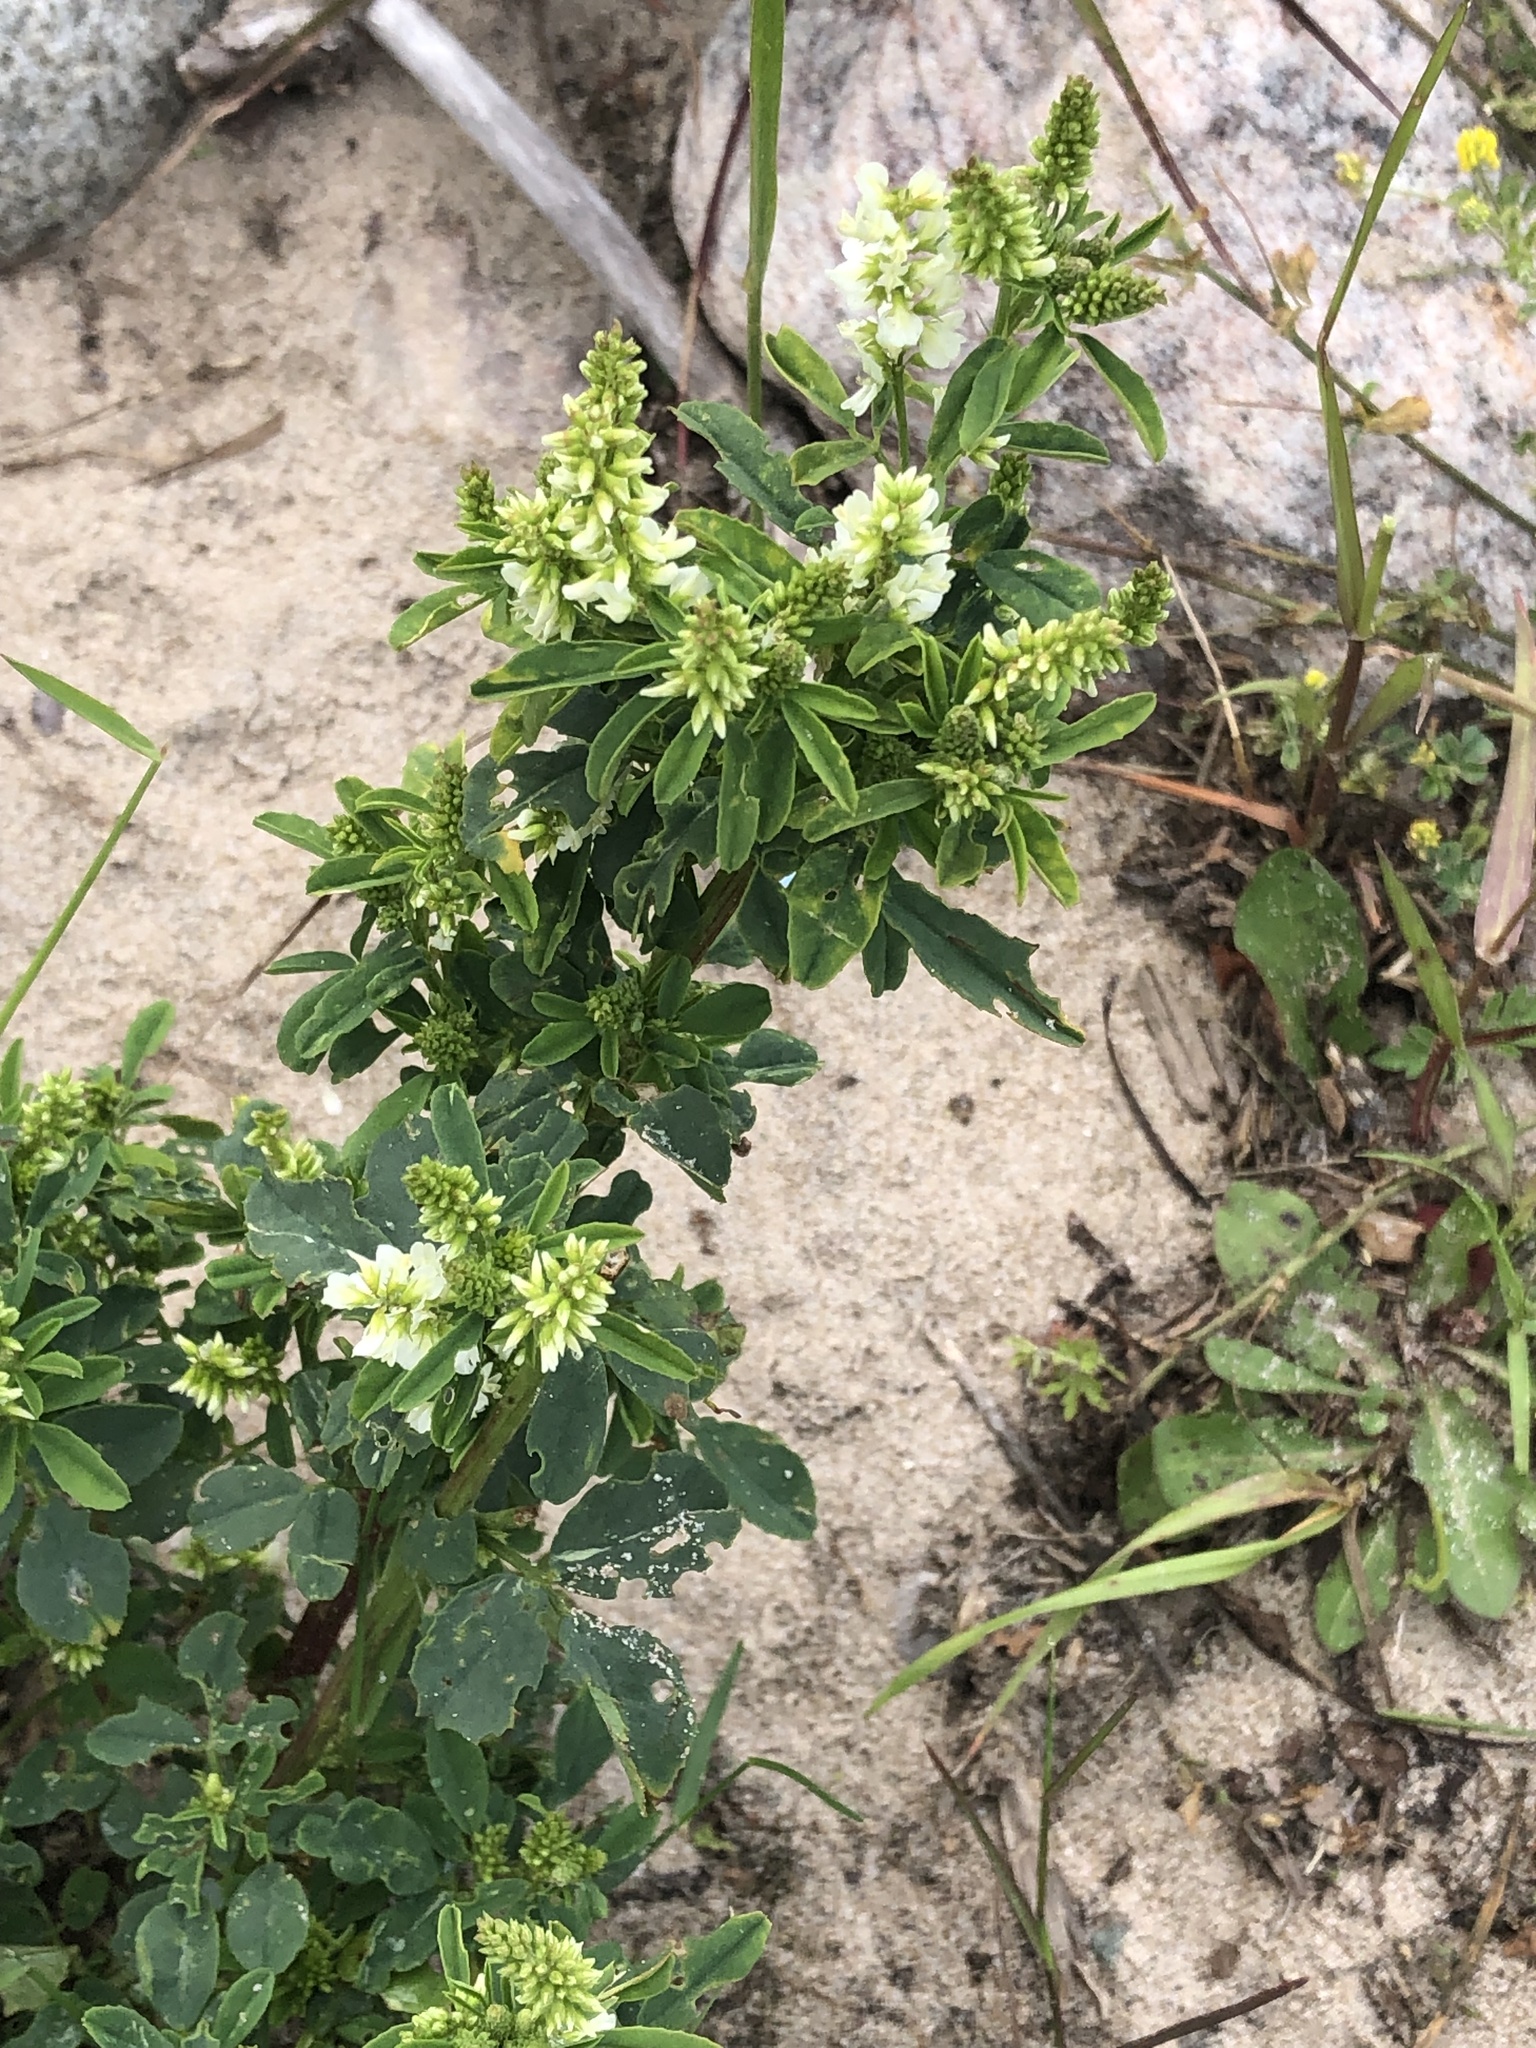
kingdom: Plantae
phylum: Tracheophyta
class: Magnoliopsida
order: Fabales
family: Fabaceae
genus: Melilotus
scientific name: Melilotus albus
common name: White melilot
